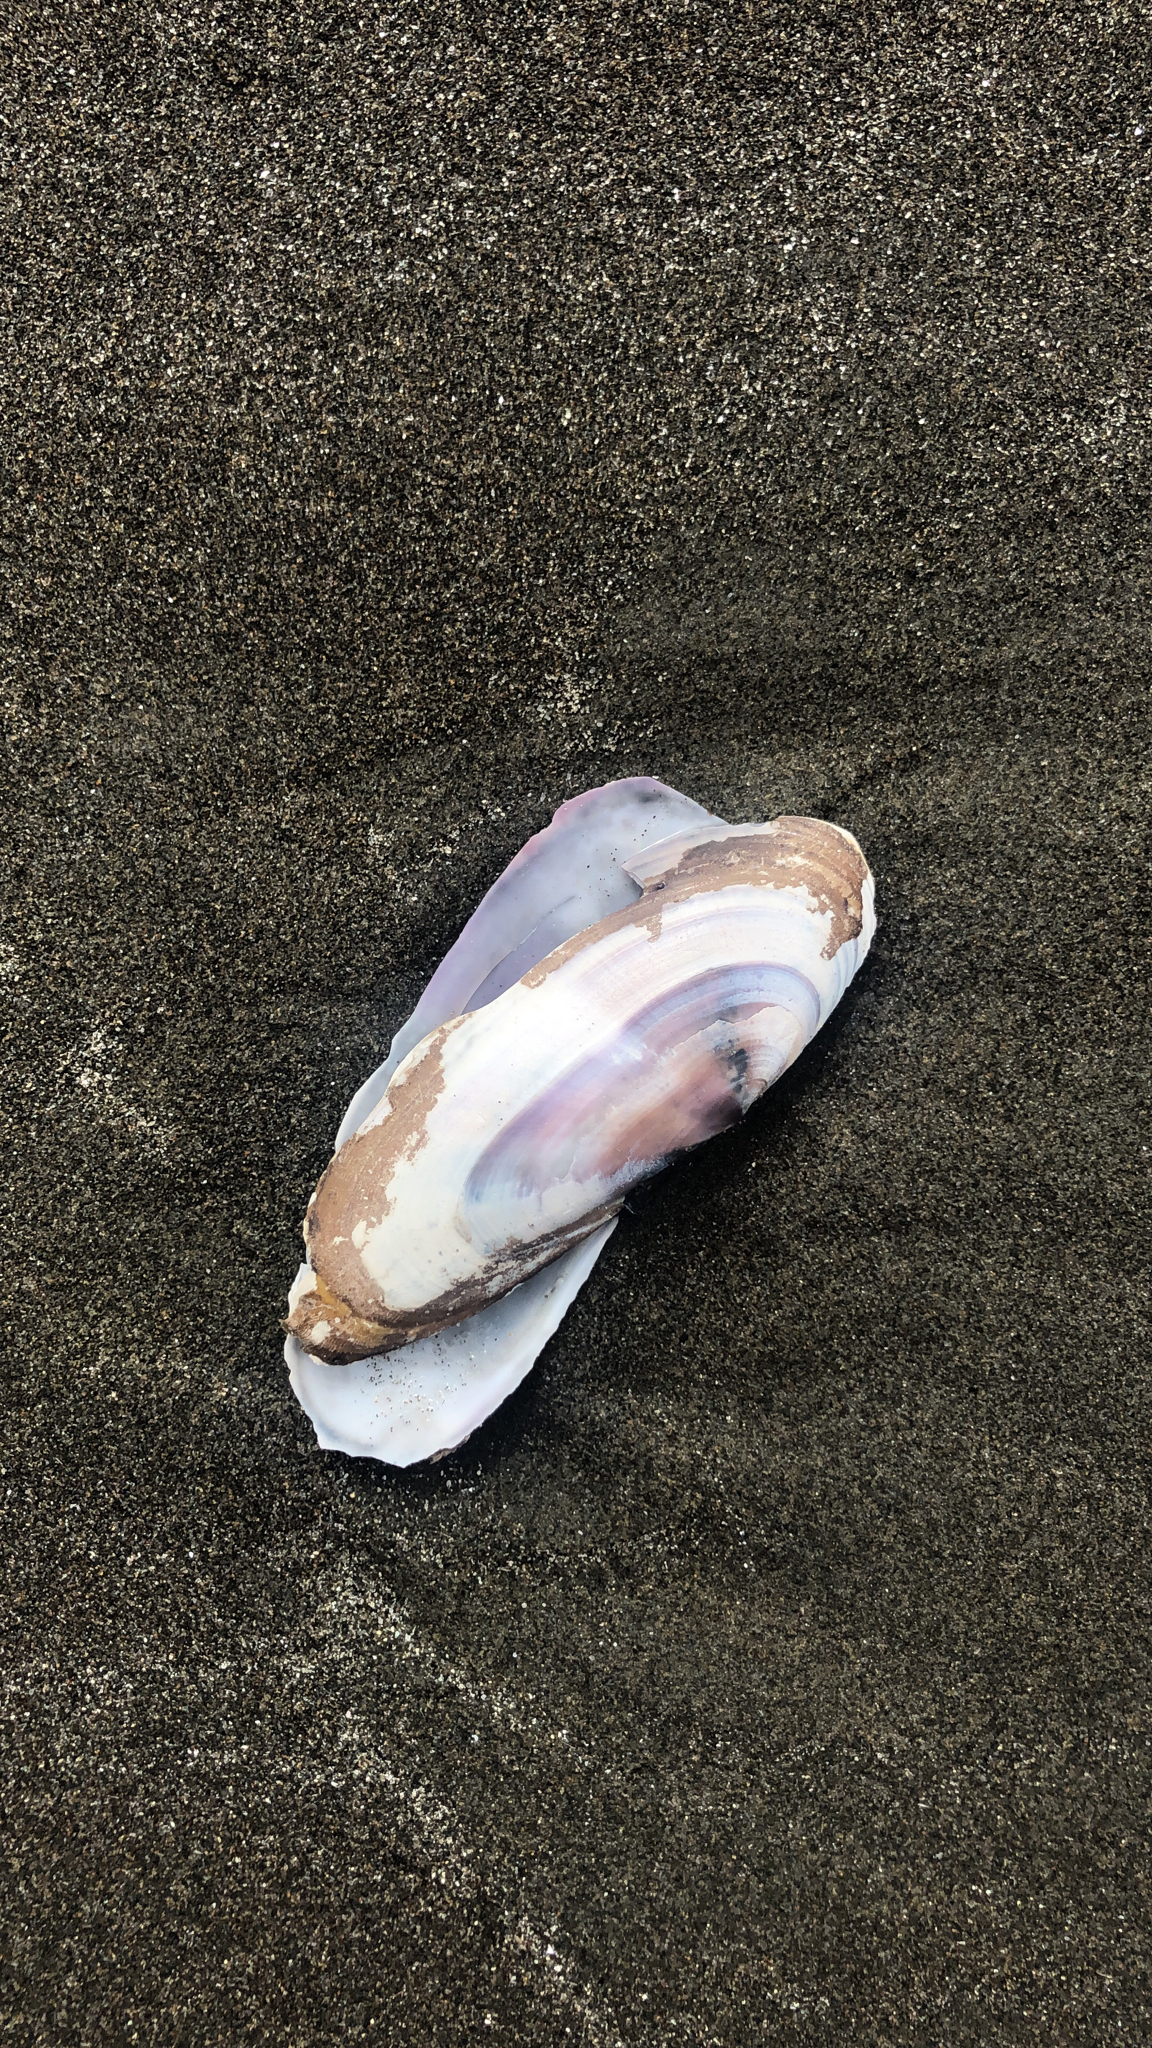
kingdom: Animalia
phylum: Mollusca
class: Bivalvia
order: Adapedonta
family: Pharidae
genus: Siliqua
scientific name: Siliqua patula
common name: Pacific razor clam
